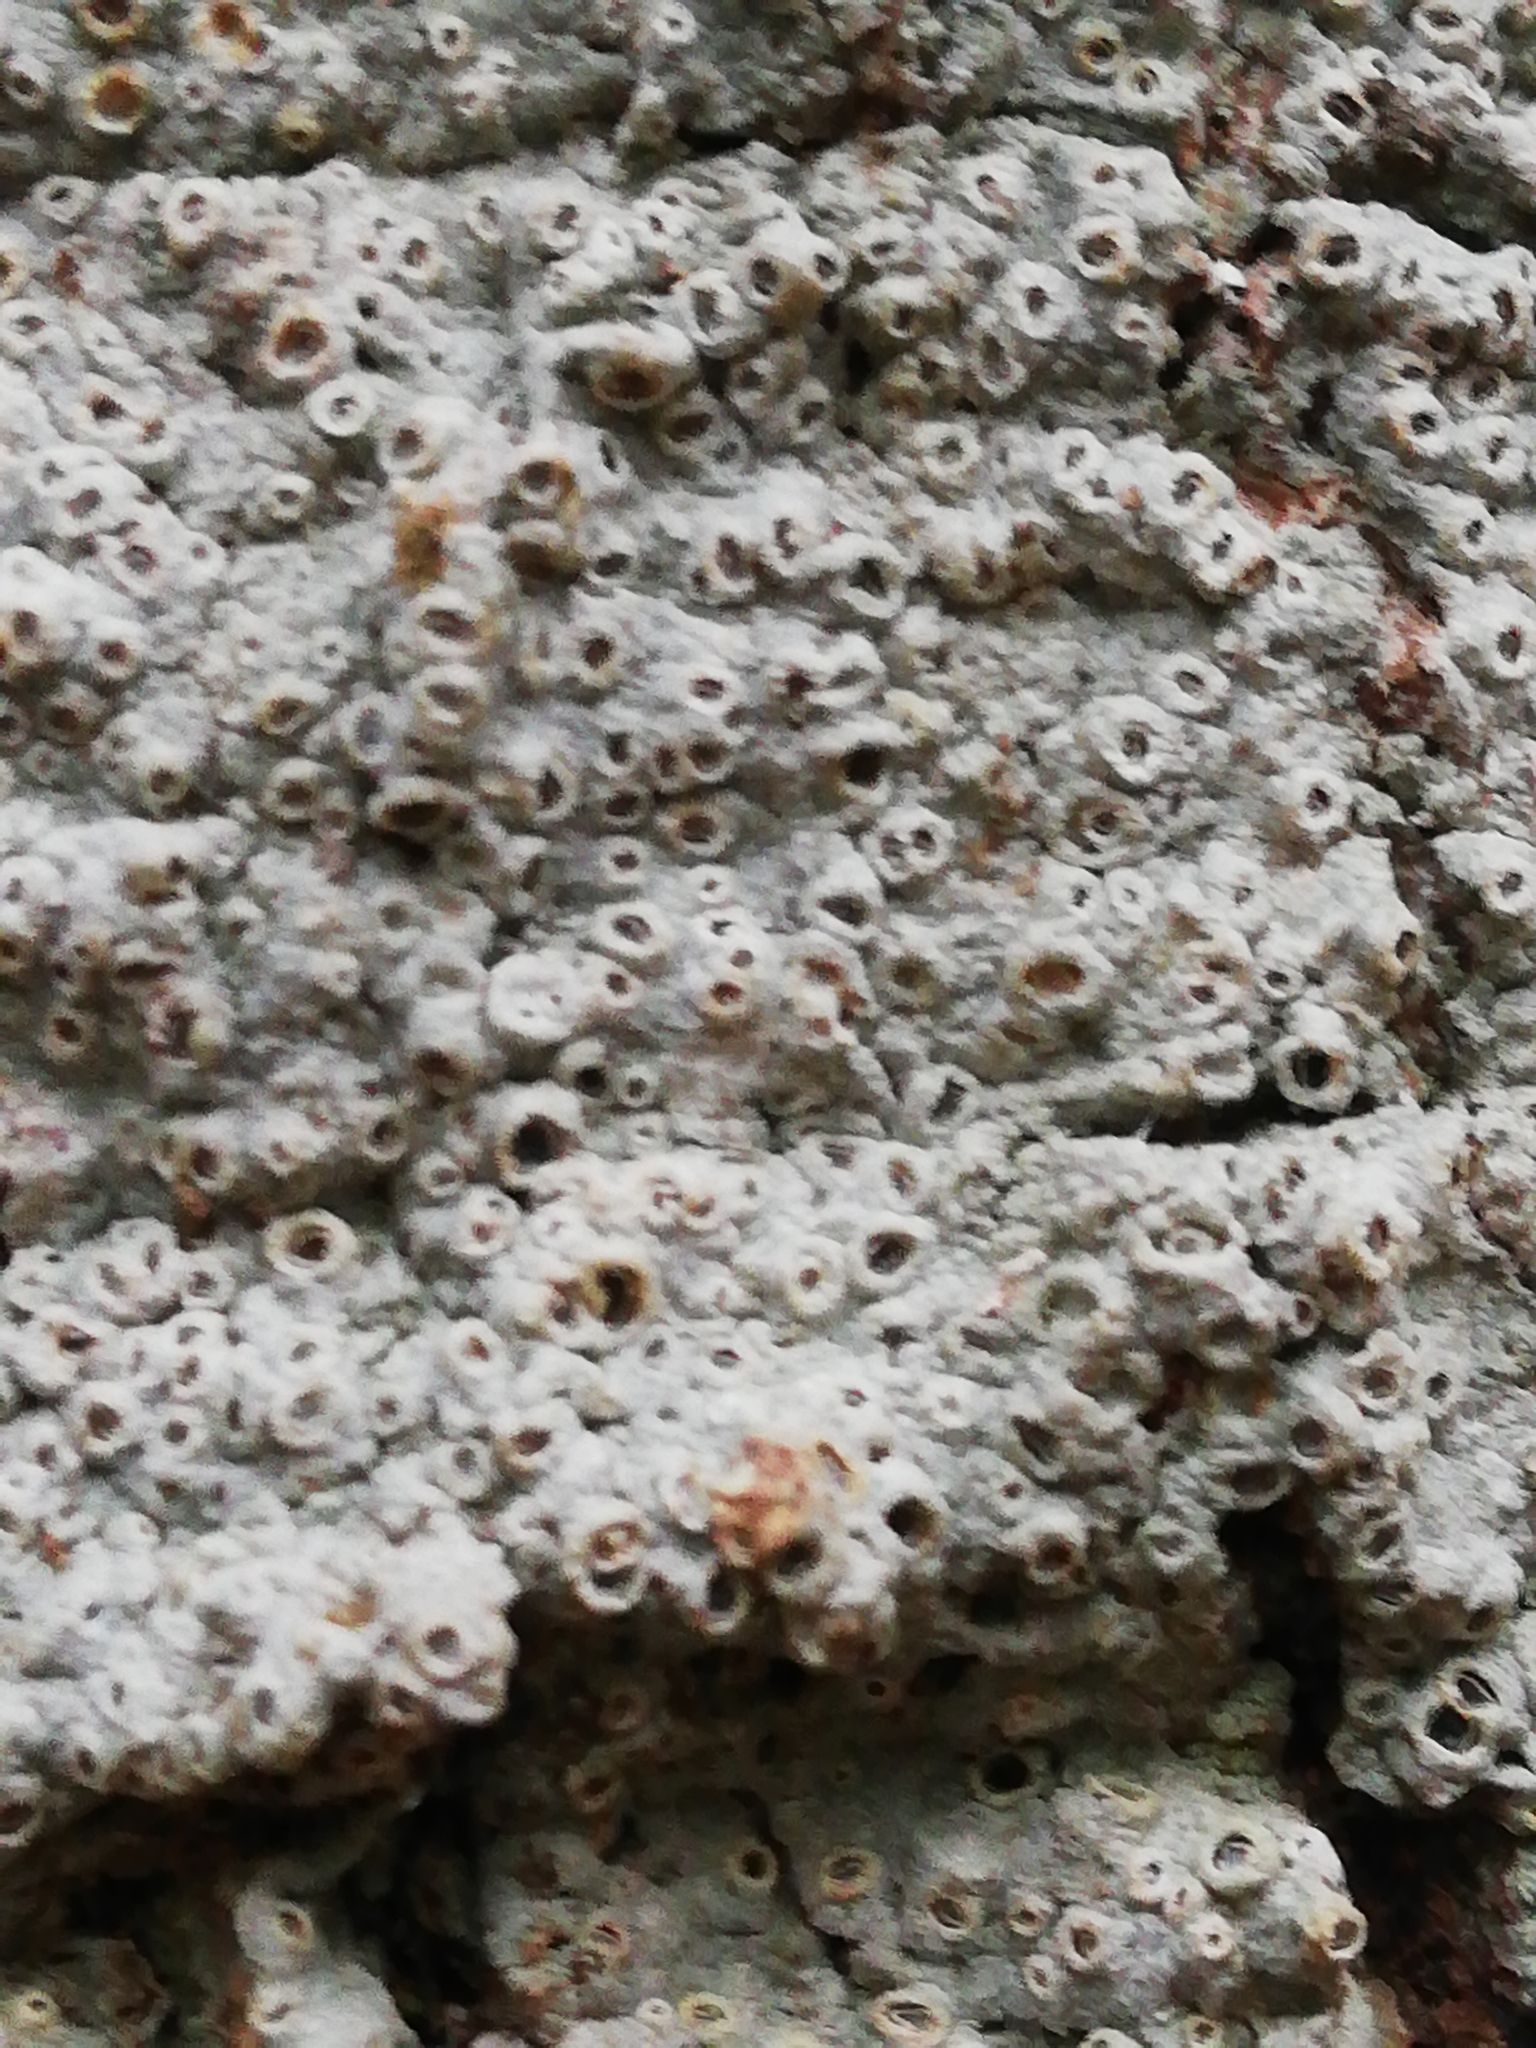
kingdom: Fungi
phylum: Ascomycota
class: Lecanoromycetes
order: Ostropales
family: Graphidaceae
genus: Thelotrema
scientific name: Thelotrema lepadinum
